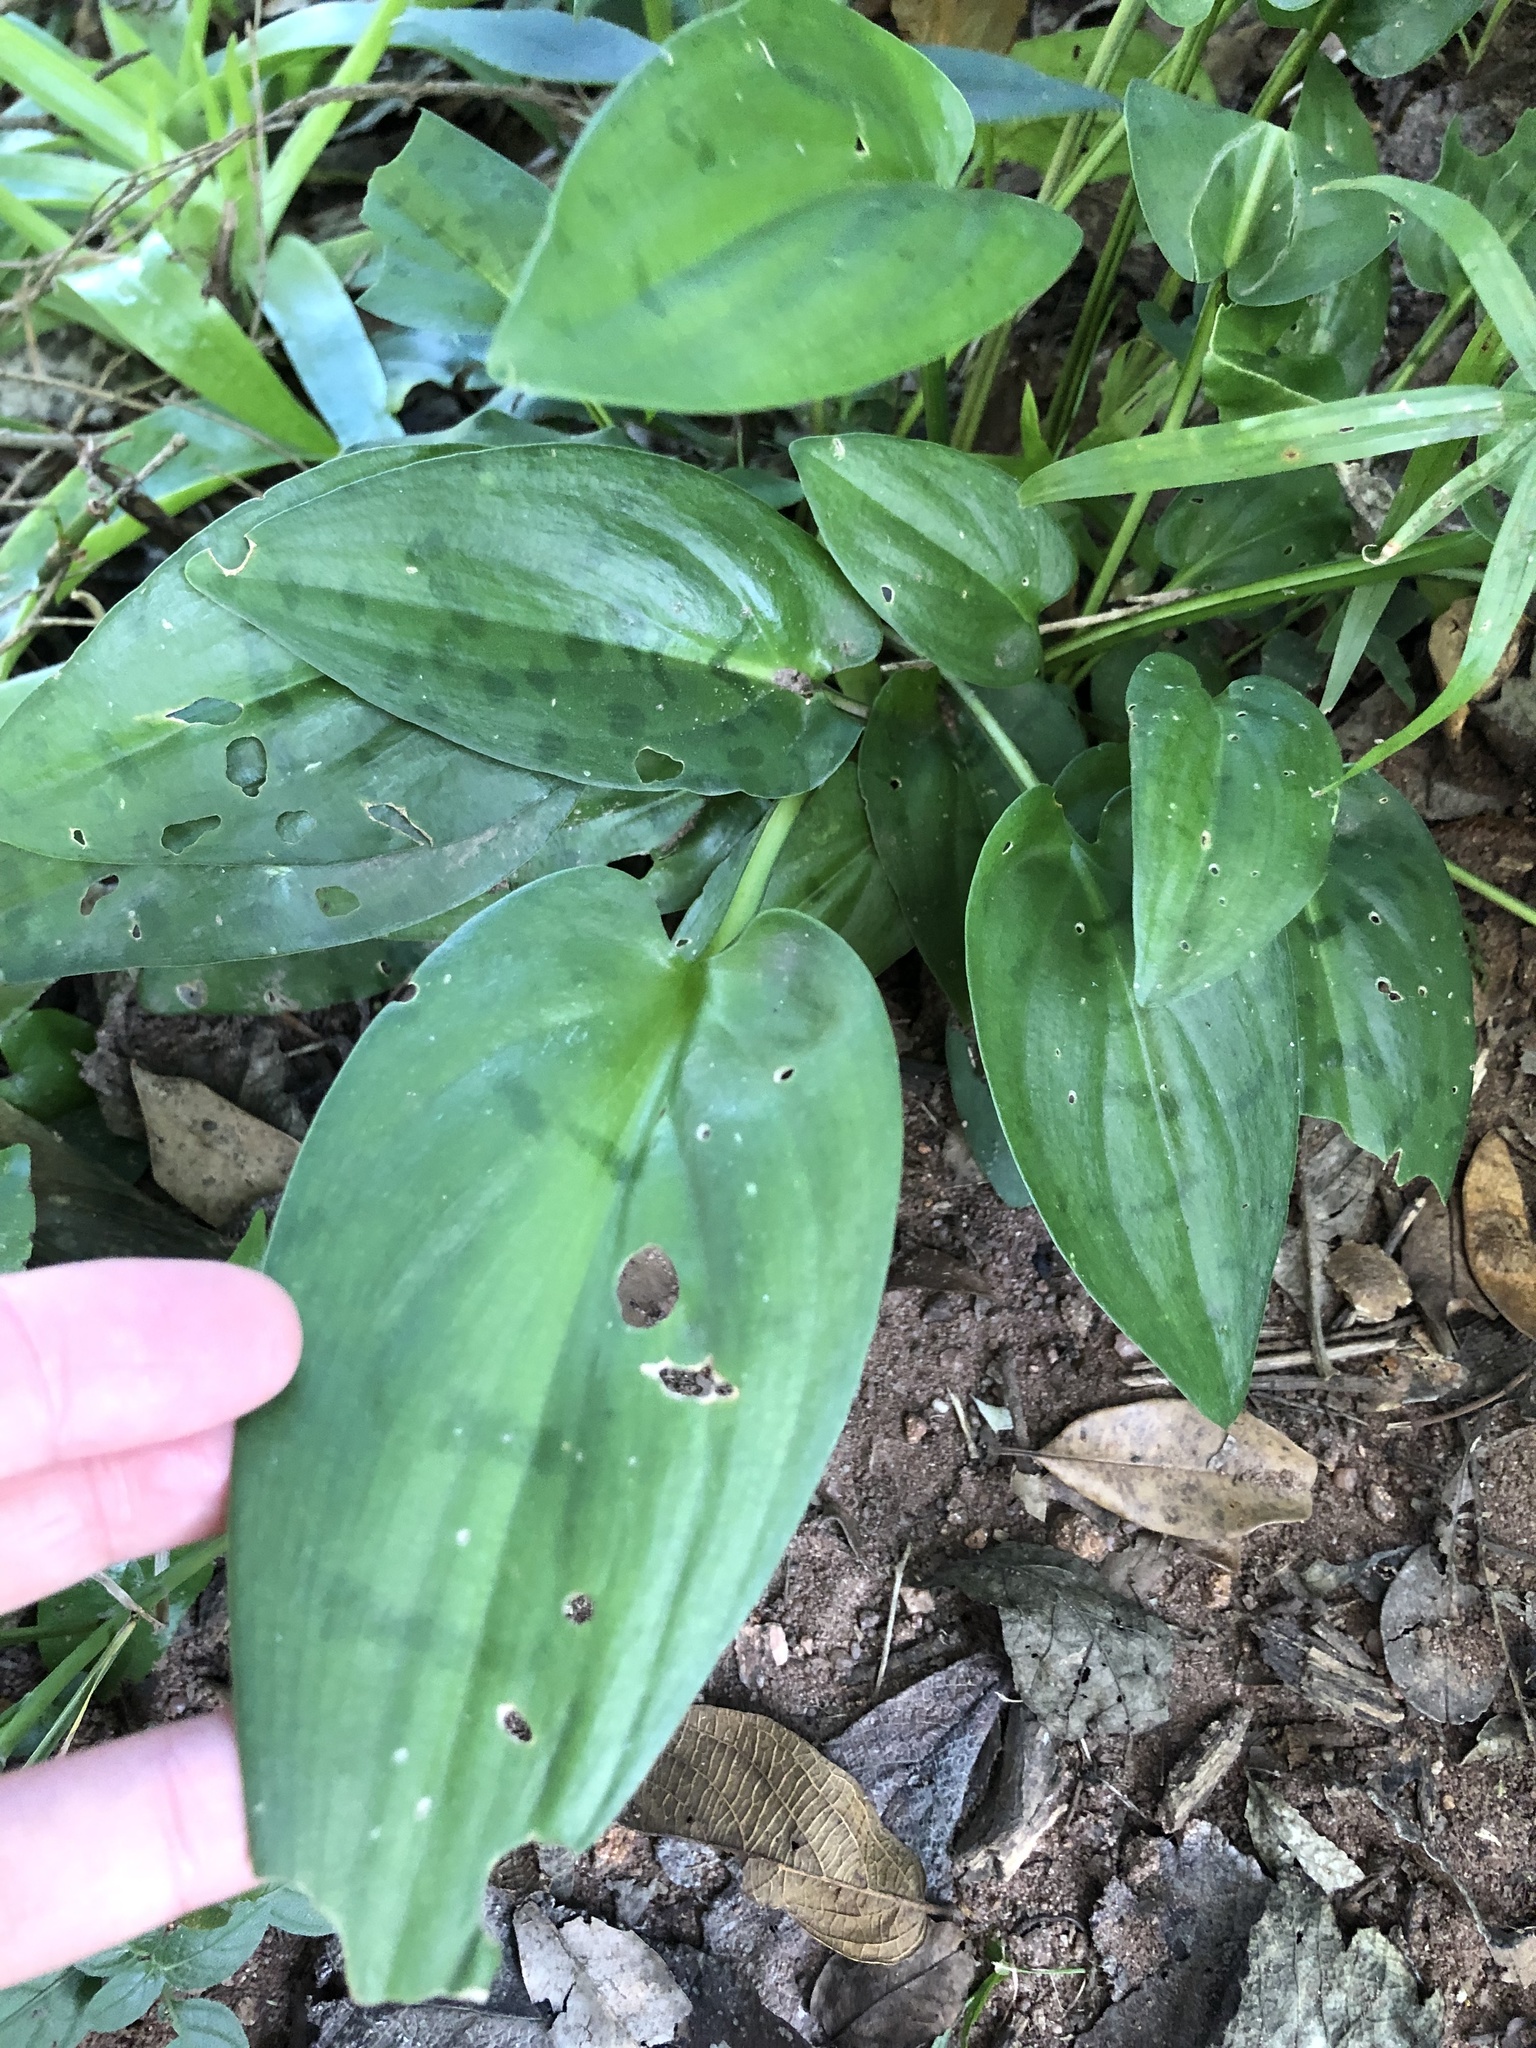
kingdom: Plantae
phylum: Tracheophyta
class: Liliopsida
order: Asparagales
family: Asparagaceae
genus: Drimiopsis
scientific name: Drimiopsis maculata
